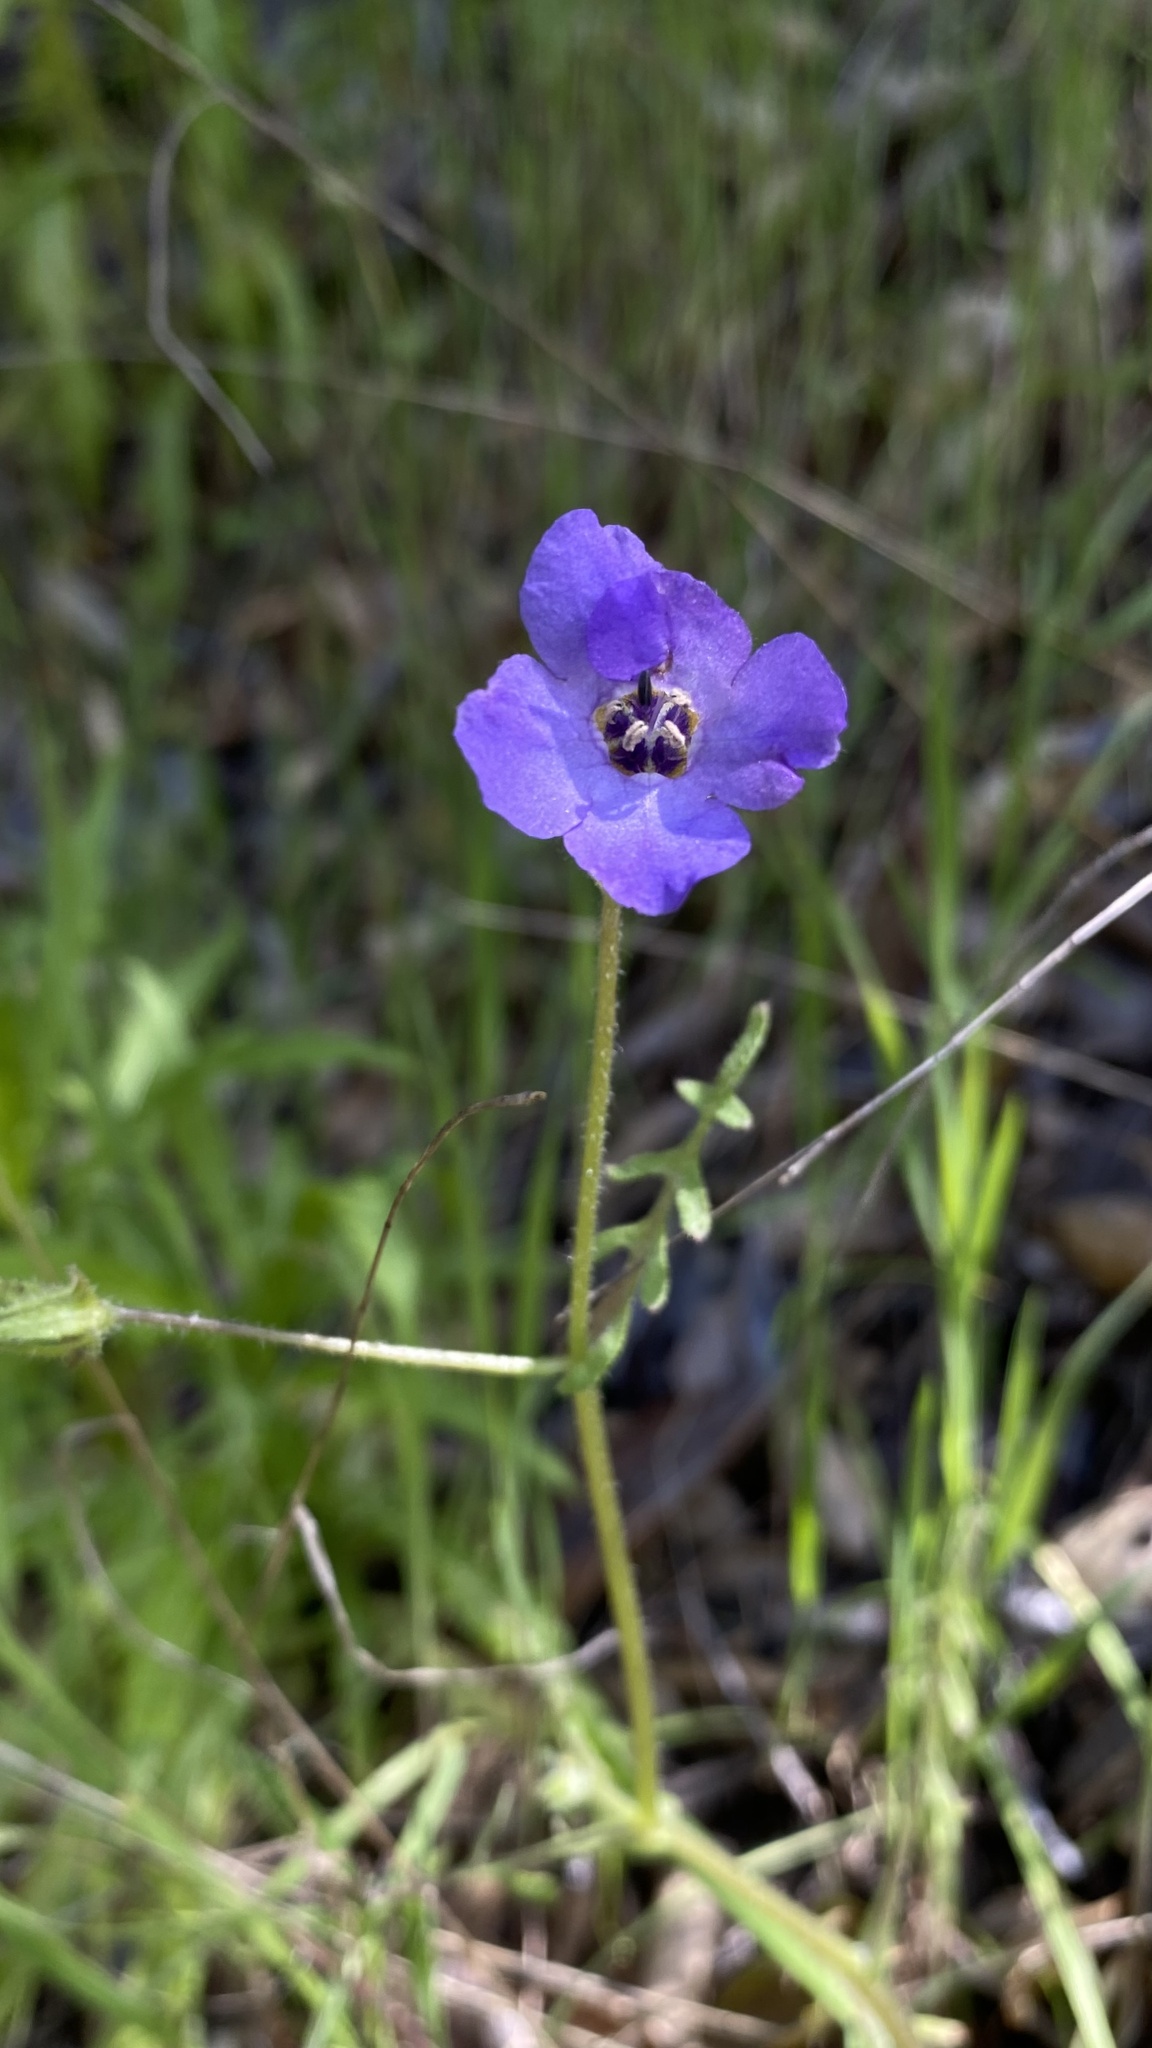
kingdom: Plantae
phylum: Tracheophyta
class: Magnoliopsida
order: Boraginales
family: Hydrophyllaceae
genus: Pholistoma
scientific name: Pholistoma auritum
